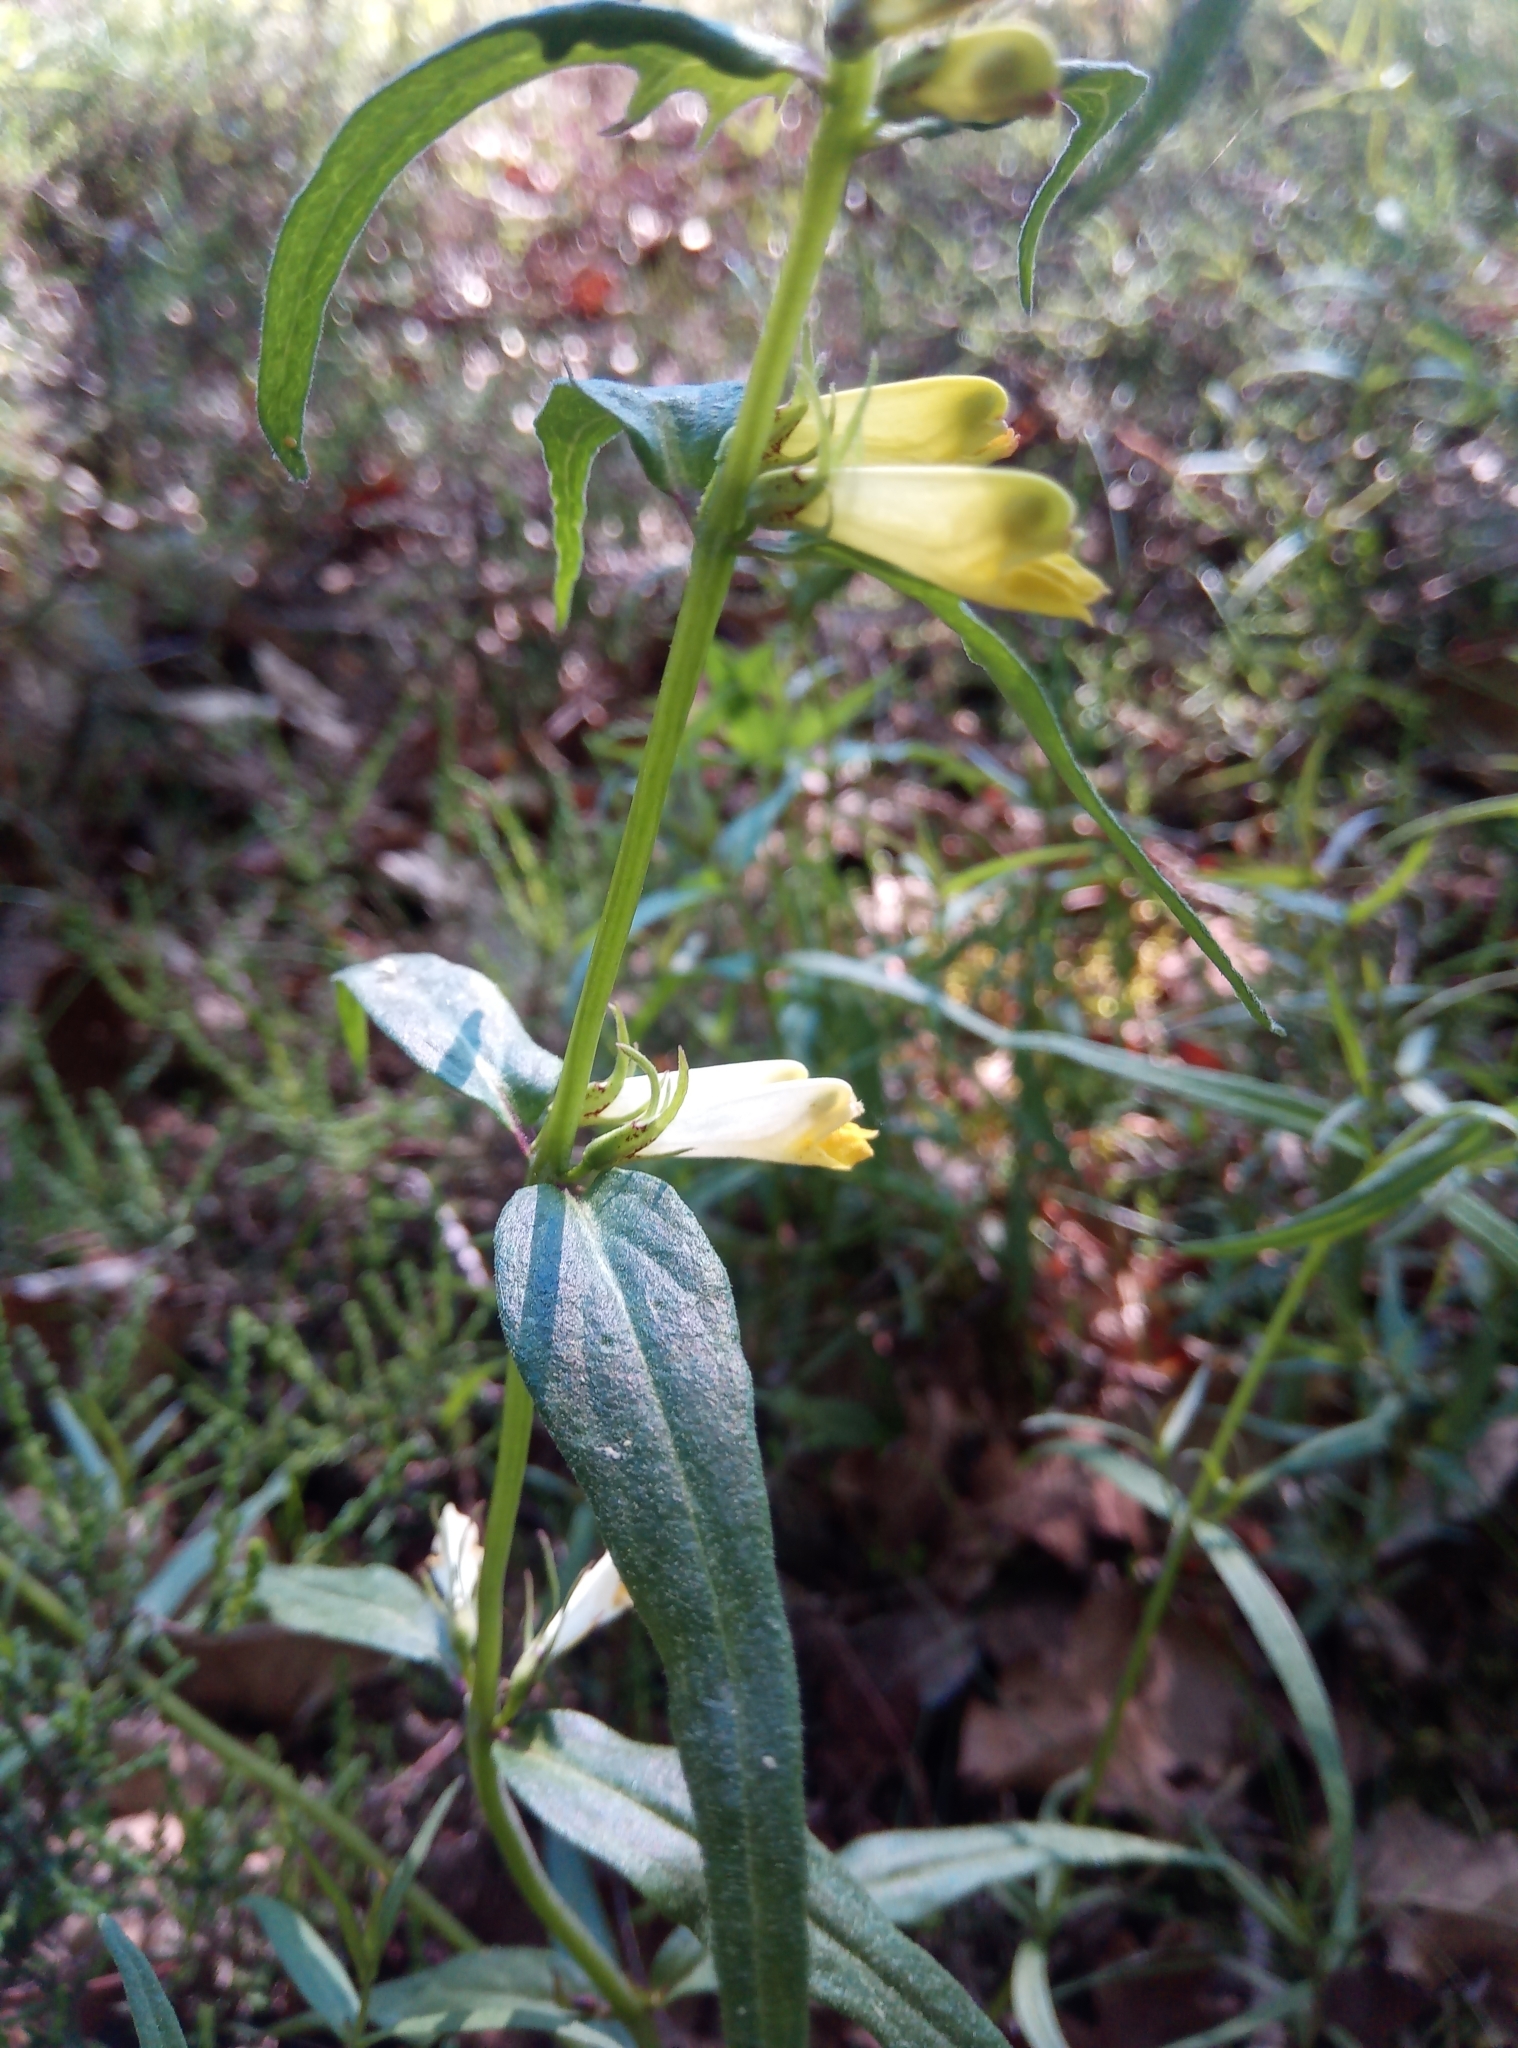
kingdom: Plantae
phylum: Tracheophyta
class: Magnoliopsida
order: Lamiales
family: Orobanchaceae
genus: Melampyrum
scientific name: Melampyrum pratense
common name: Common cow-wheat
